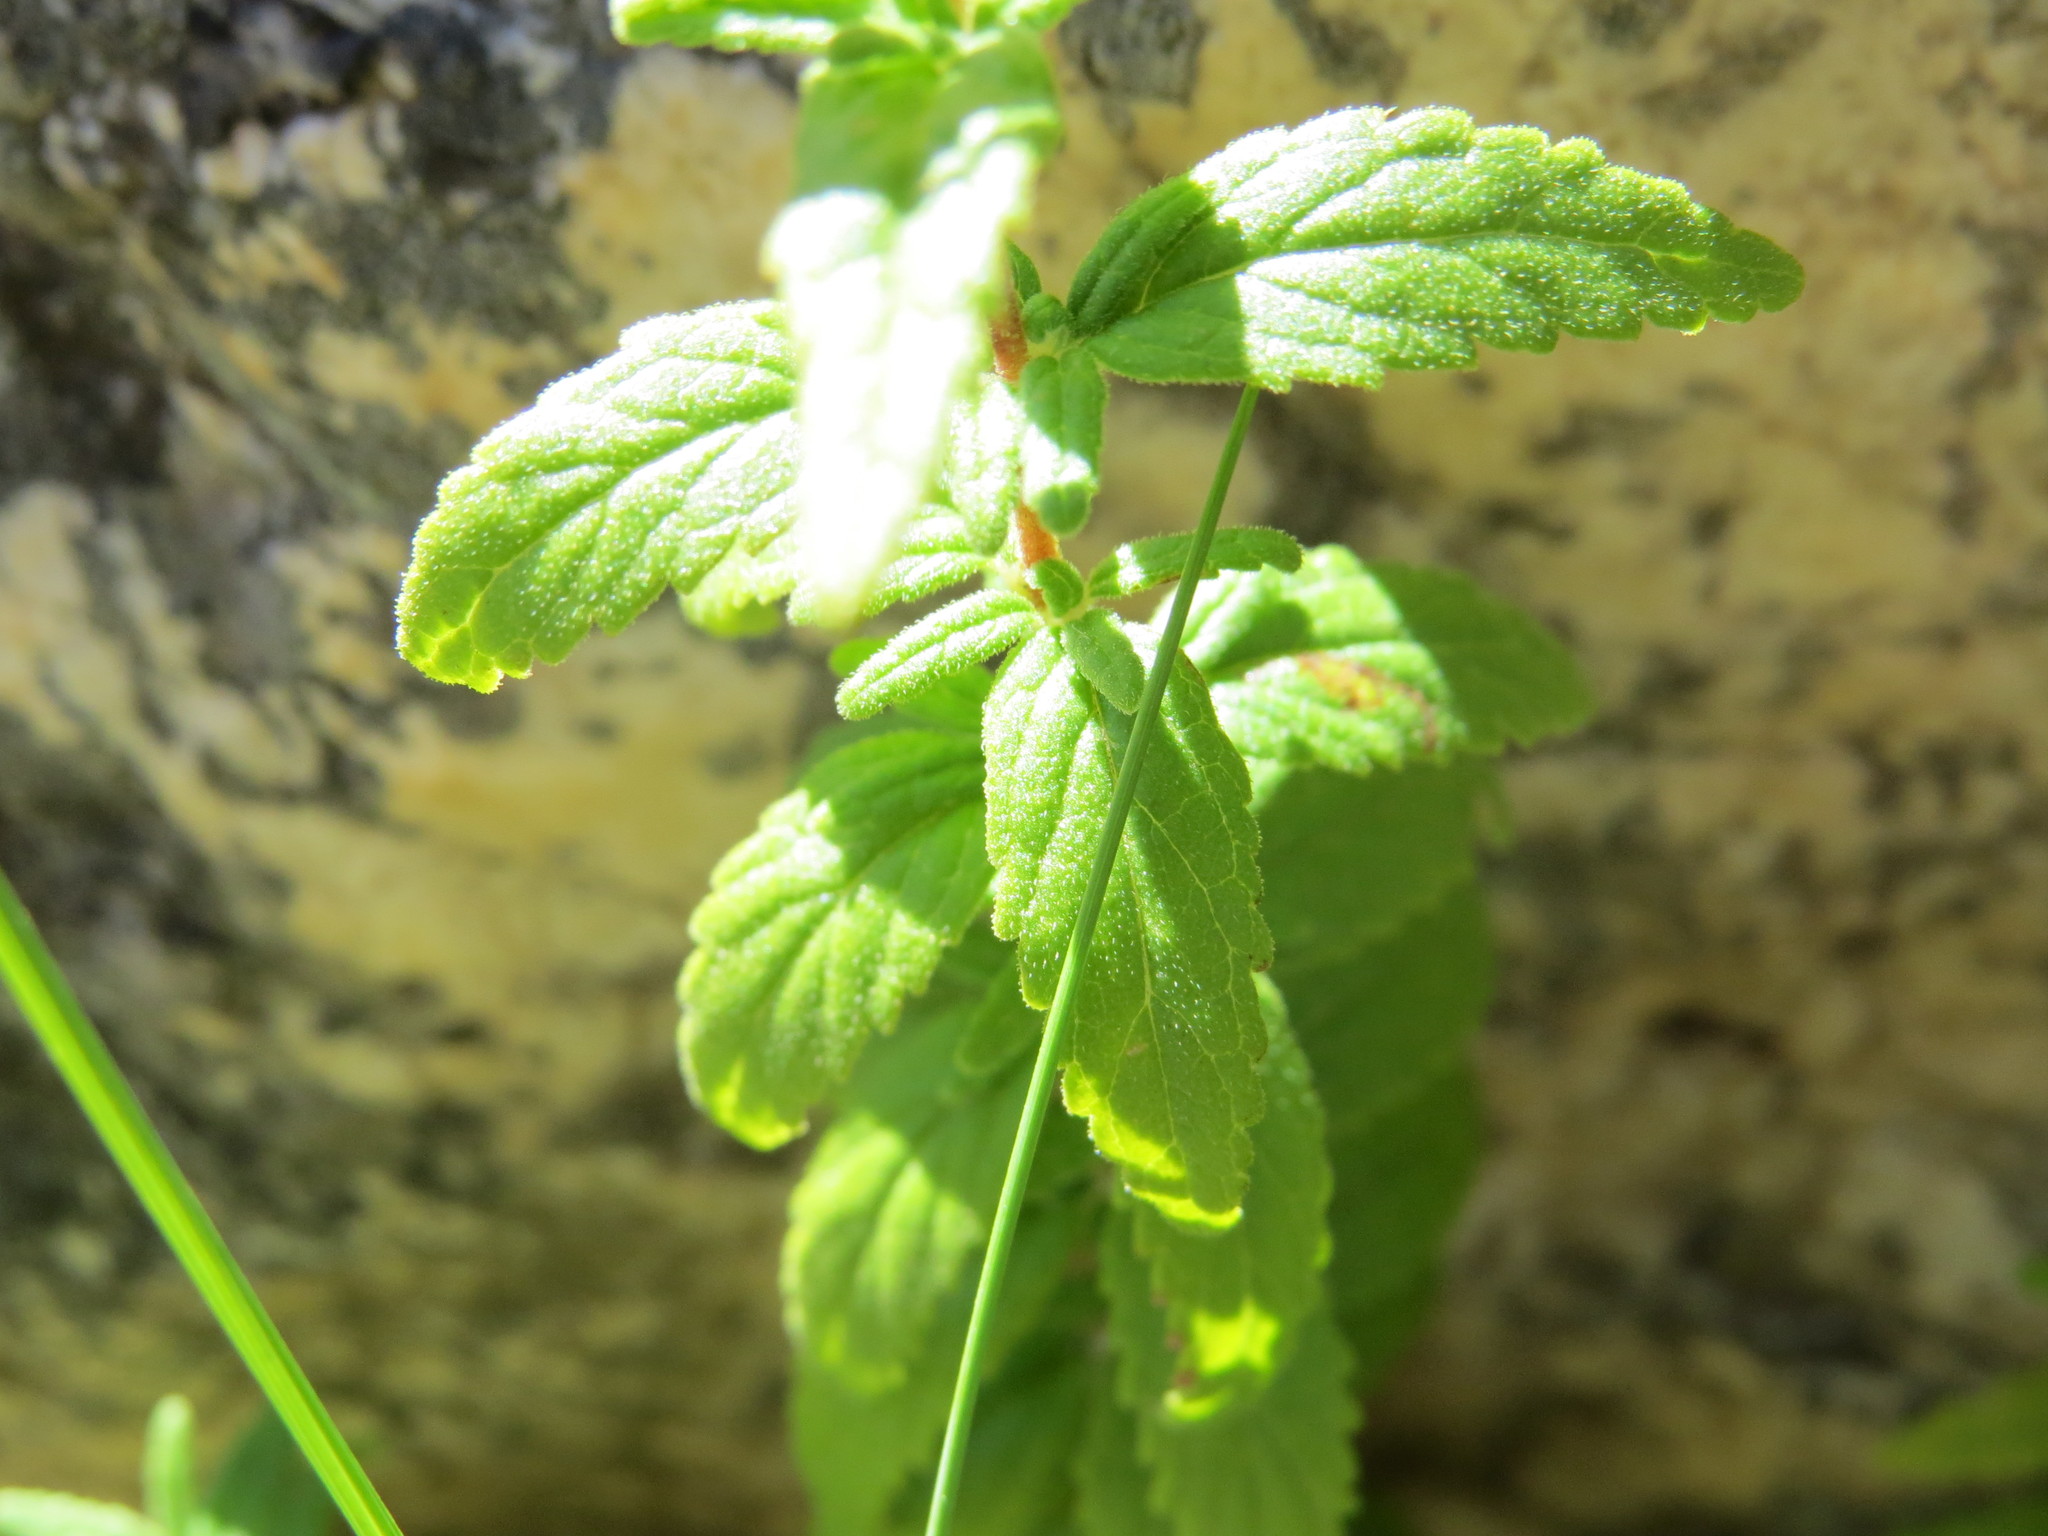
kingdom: Plantae
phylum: Tracheophyta
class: Magnoliopsida
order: Lamiales
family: Calceolariaceae
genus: Calceolaria
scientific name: Calceolaria schickendantziana
